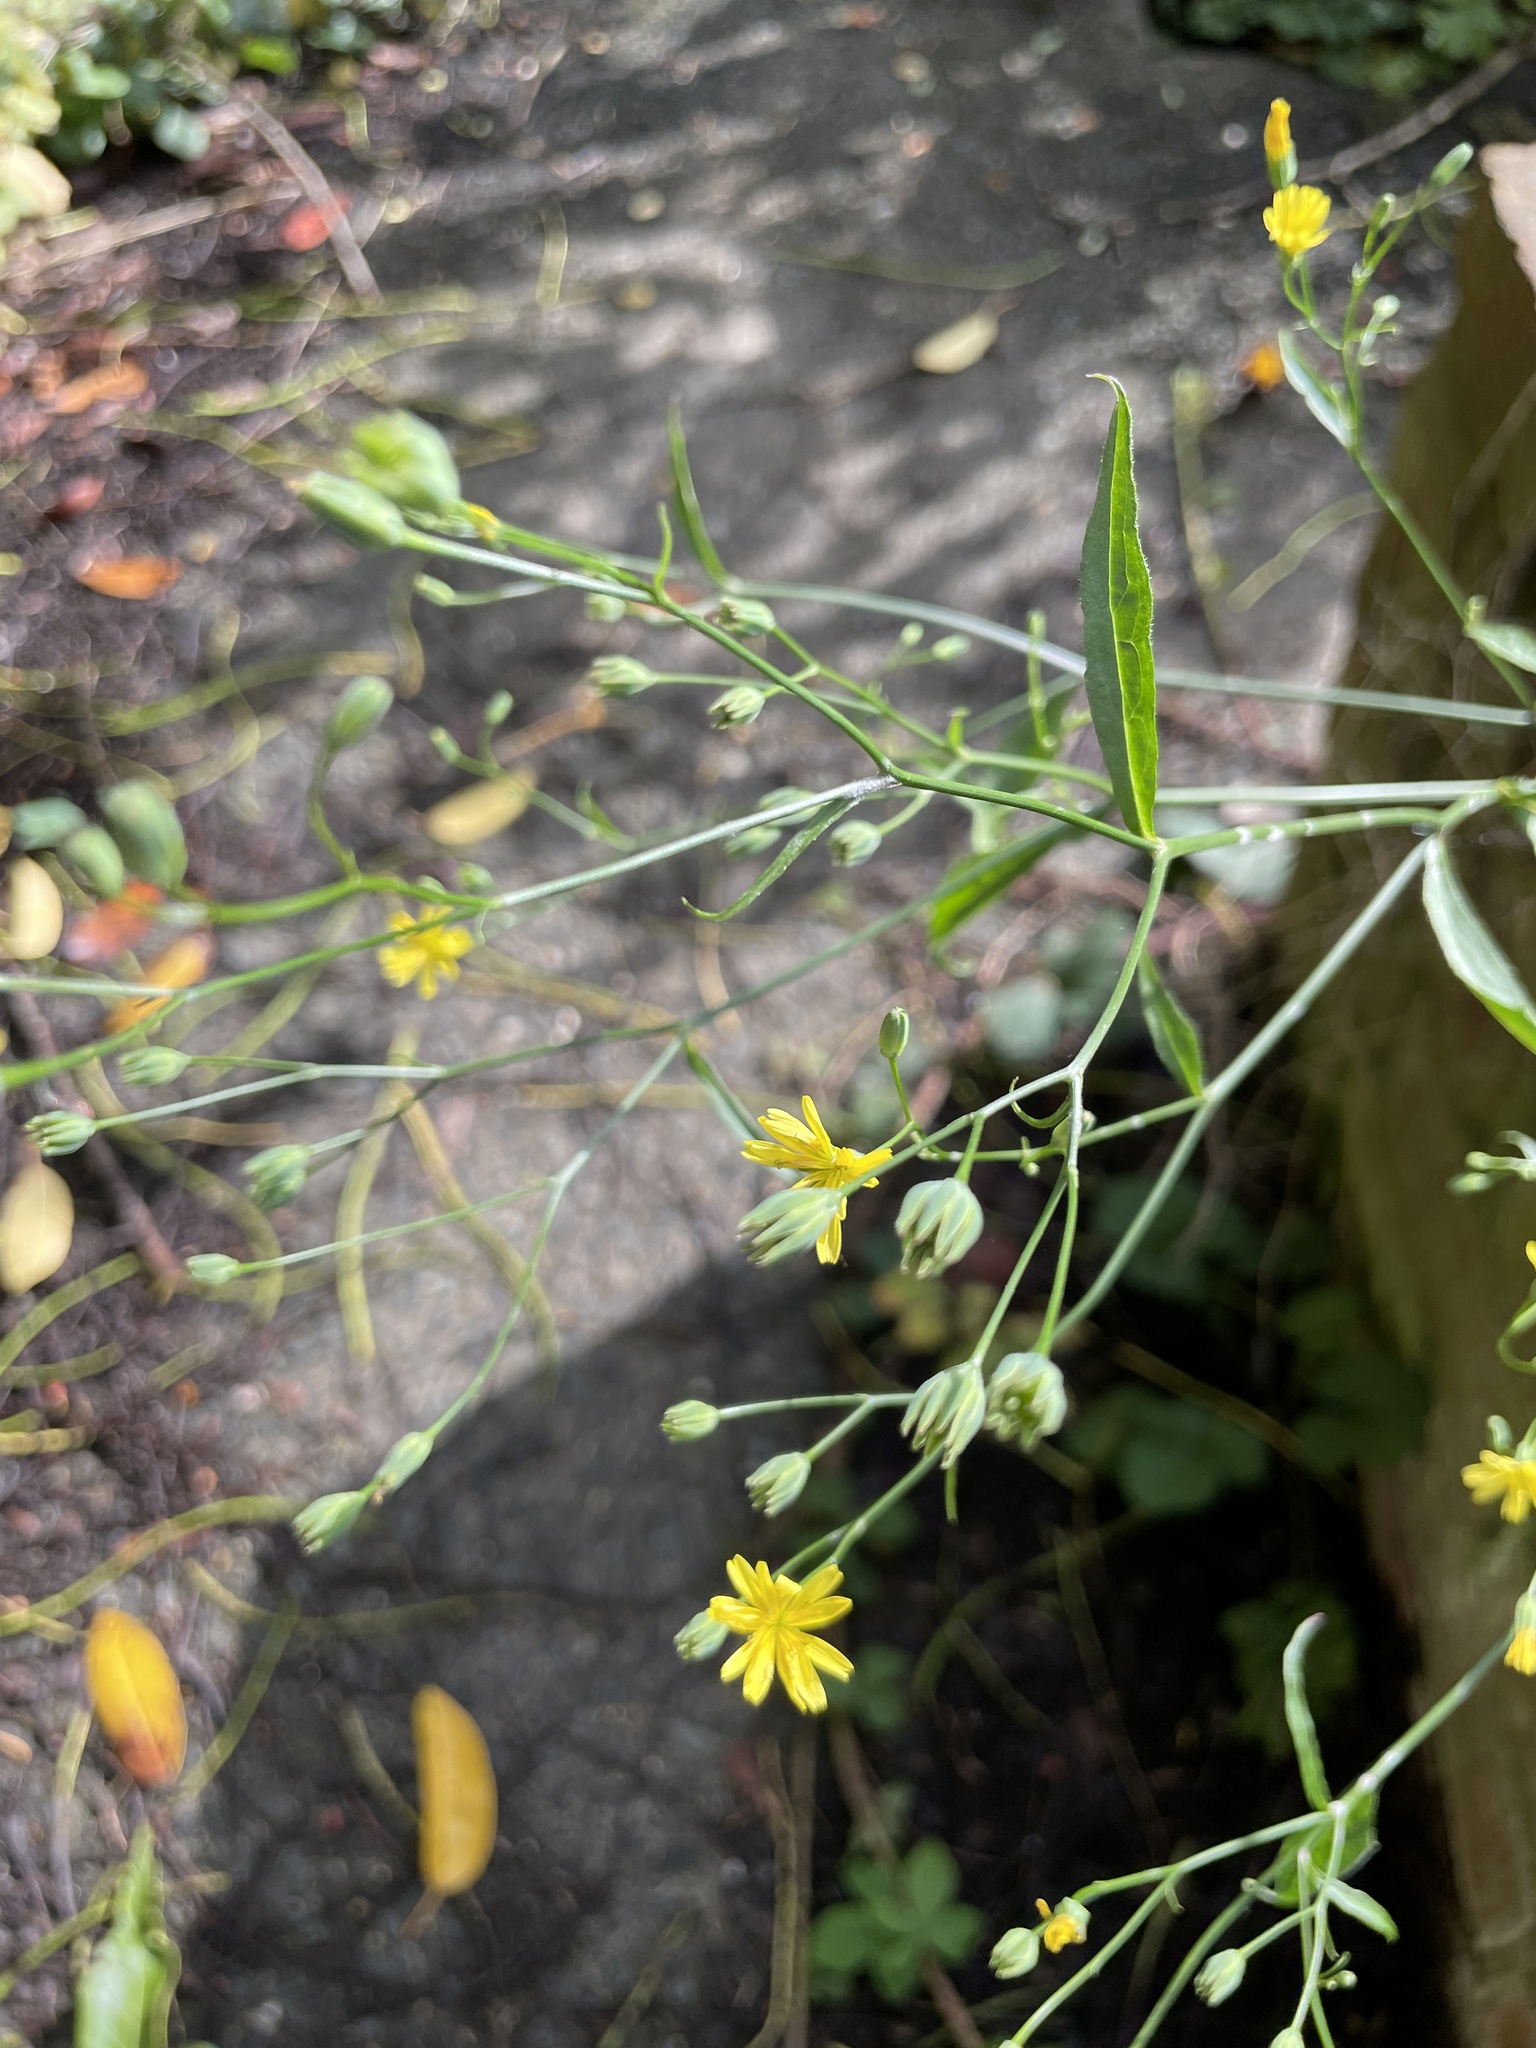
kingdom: Plantae
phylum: Tracheophyta
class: Magnoliopsida
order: Asterales
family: Asteraceae
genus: Lapsana
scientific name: Lapsana communis
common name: Nipplewort
